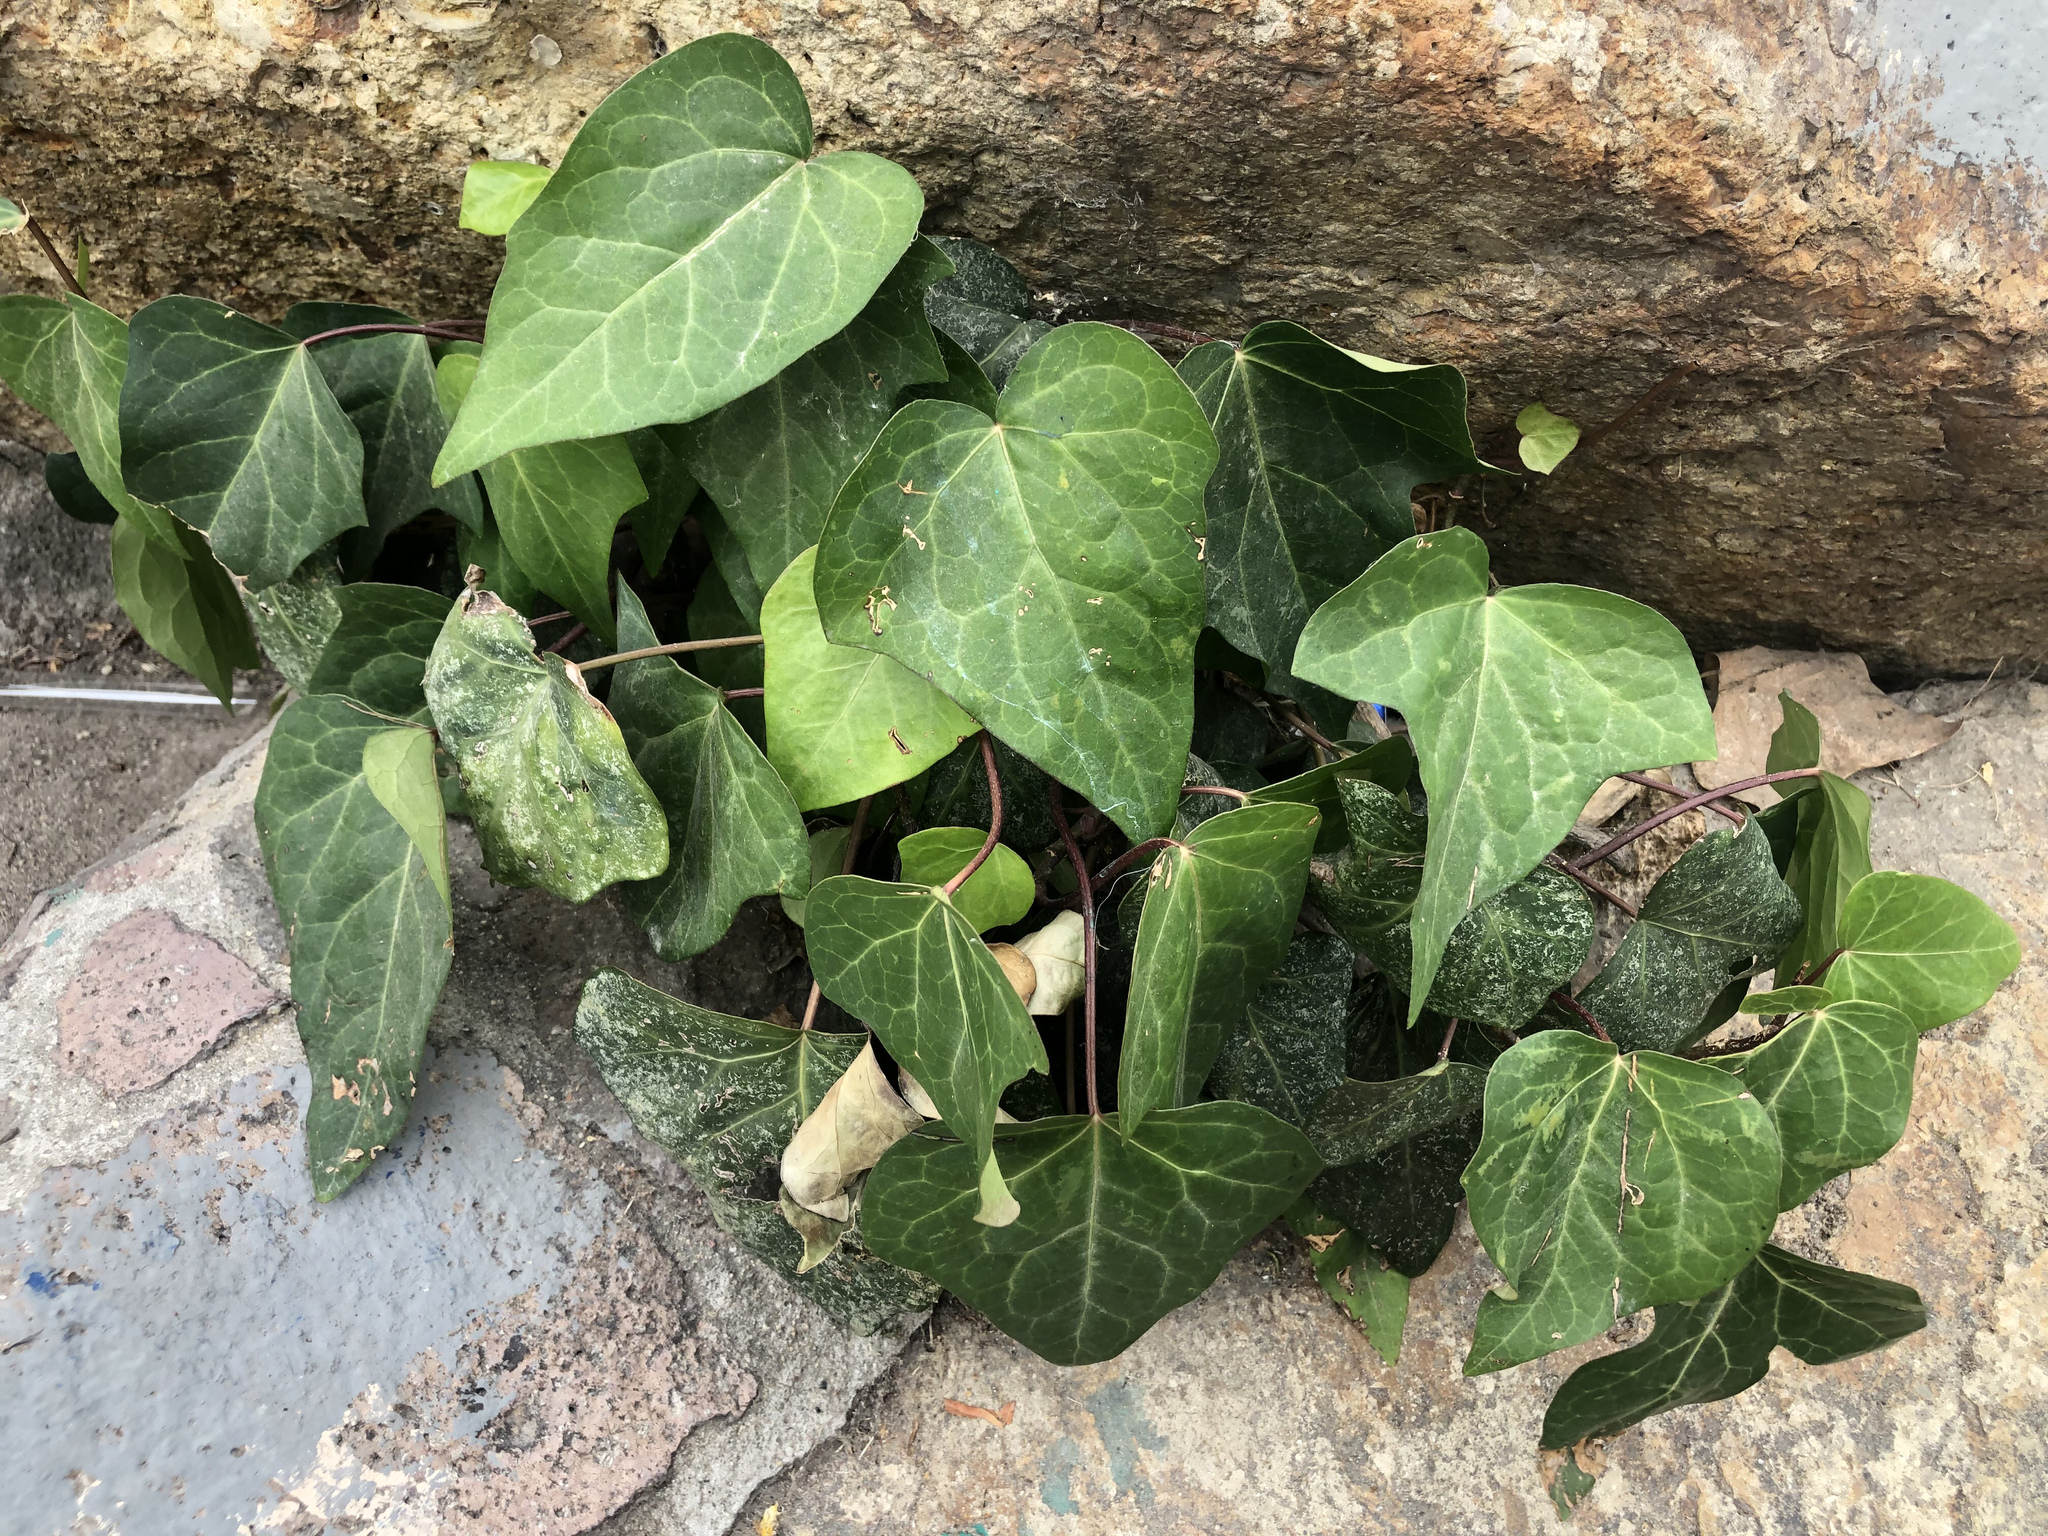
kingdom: Plantae
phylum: Tracheophyta
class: Magnoliopsida
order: Apiales
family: Araliaceae
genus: Hedera
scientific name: Hedera helix
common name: Ivy
